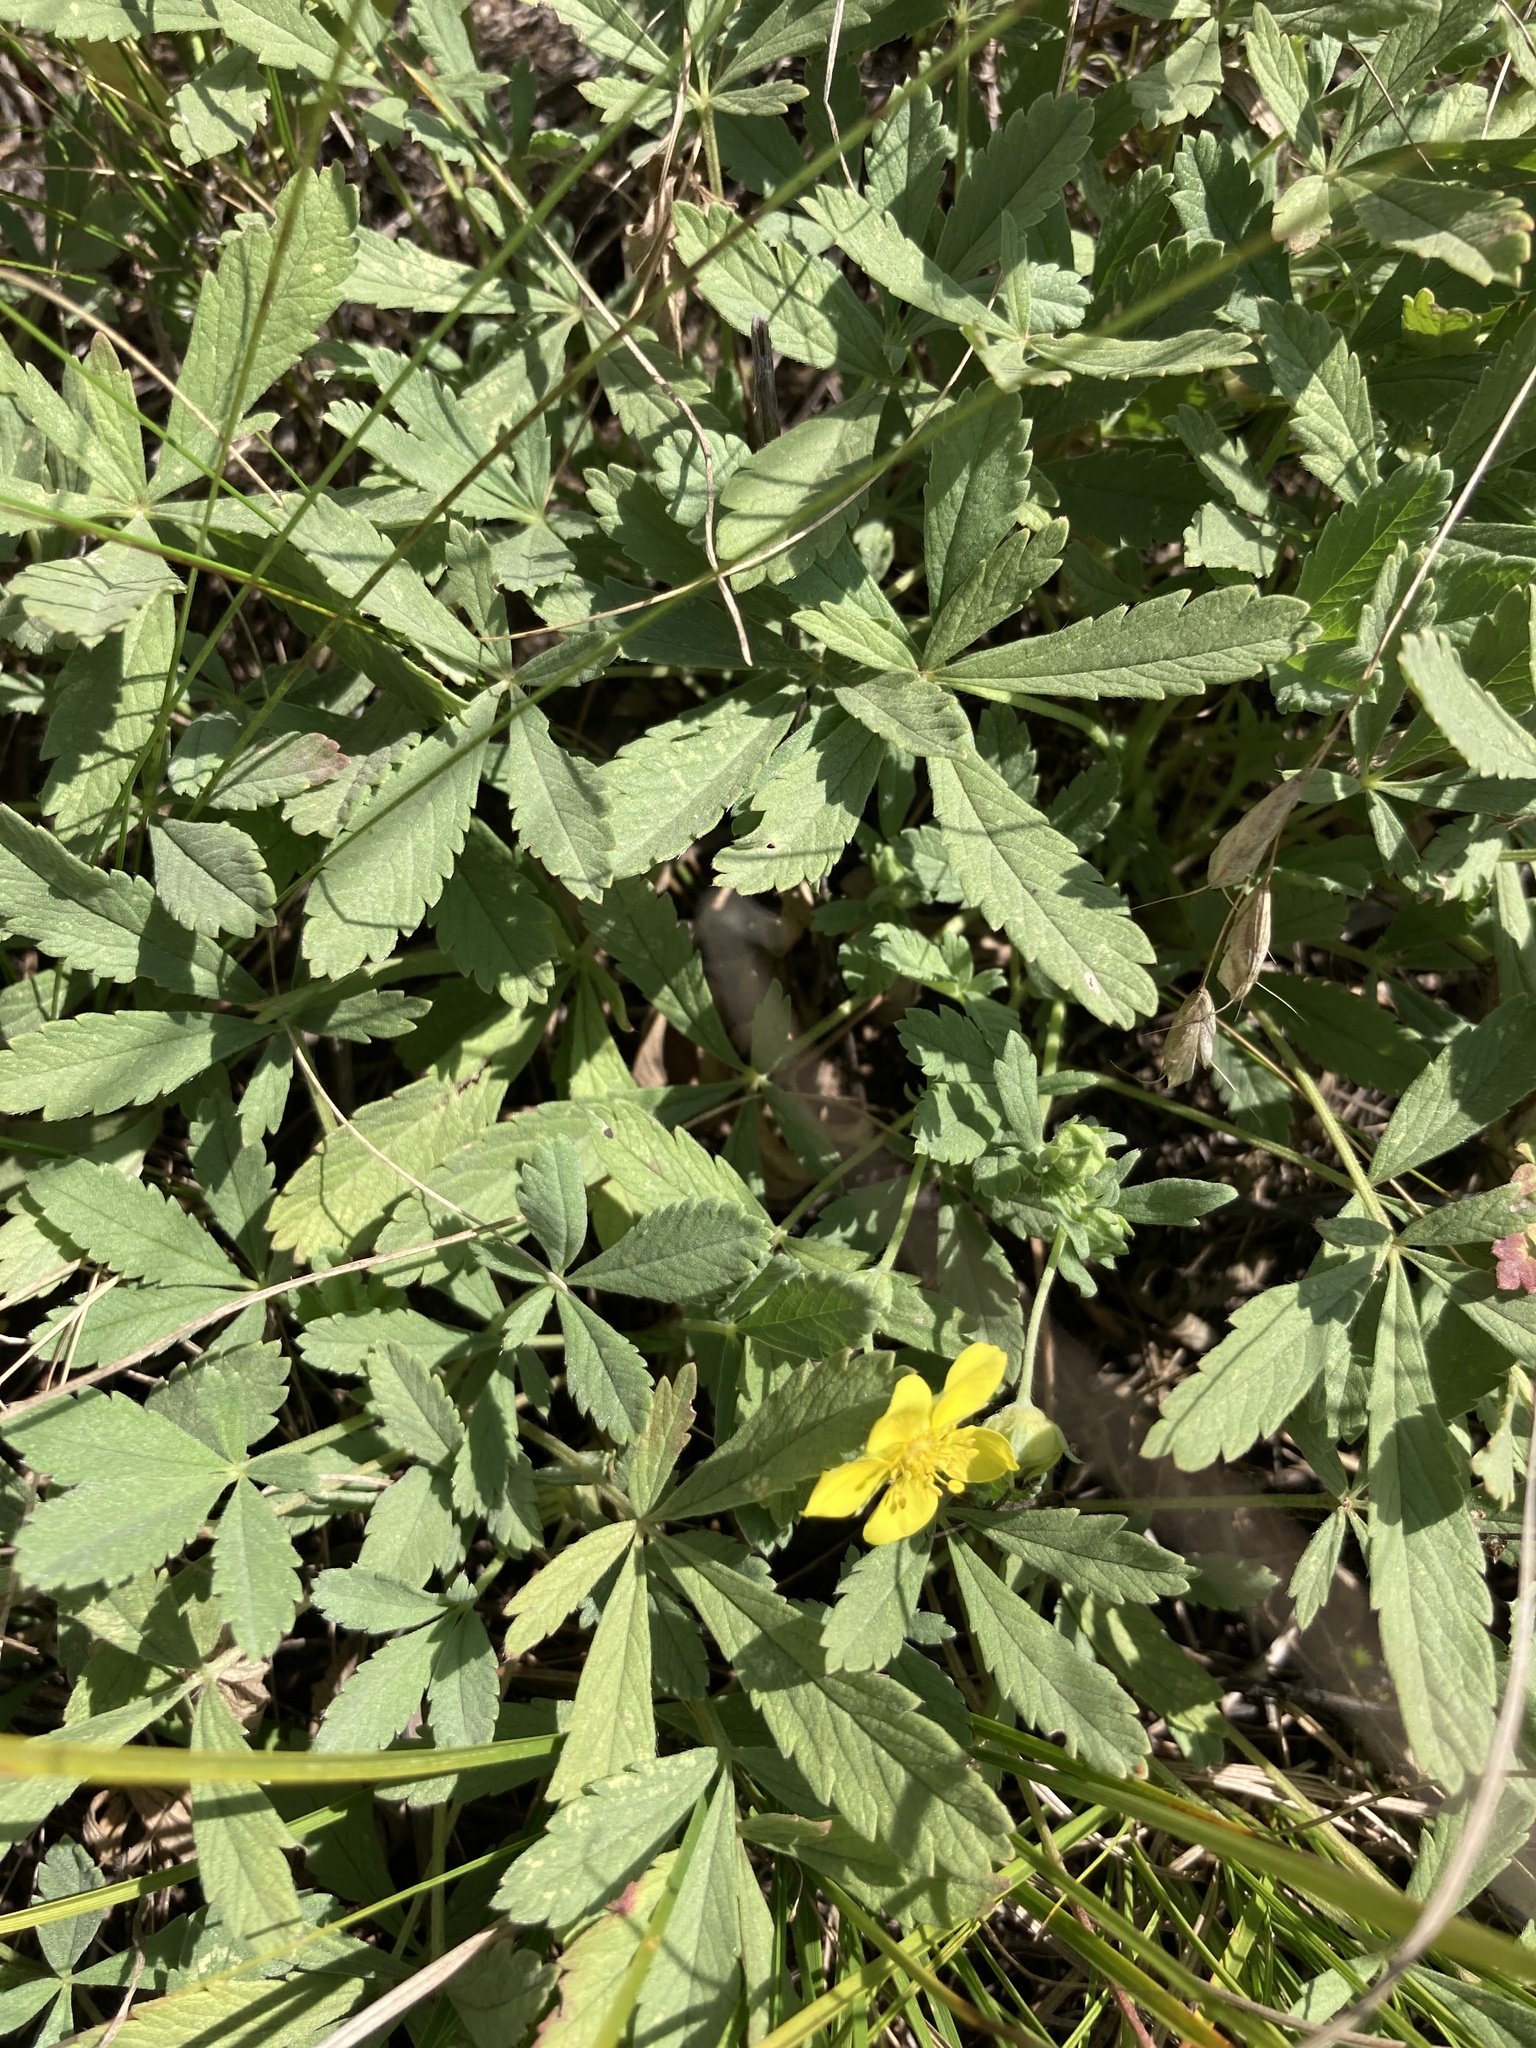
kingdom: Plantae
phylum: Tracheophyta
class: Magnoliopsida
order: Rosales
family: Rosaceae
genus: Potentilla
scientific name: Potentilla incana
